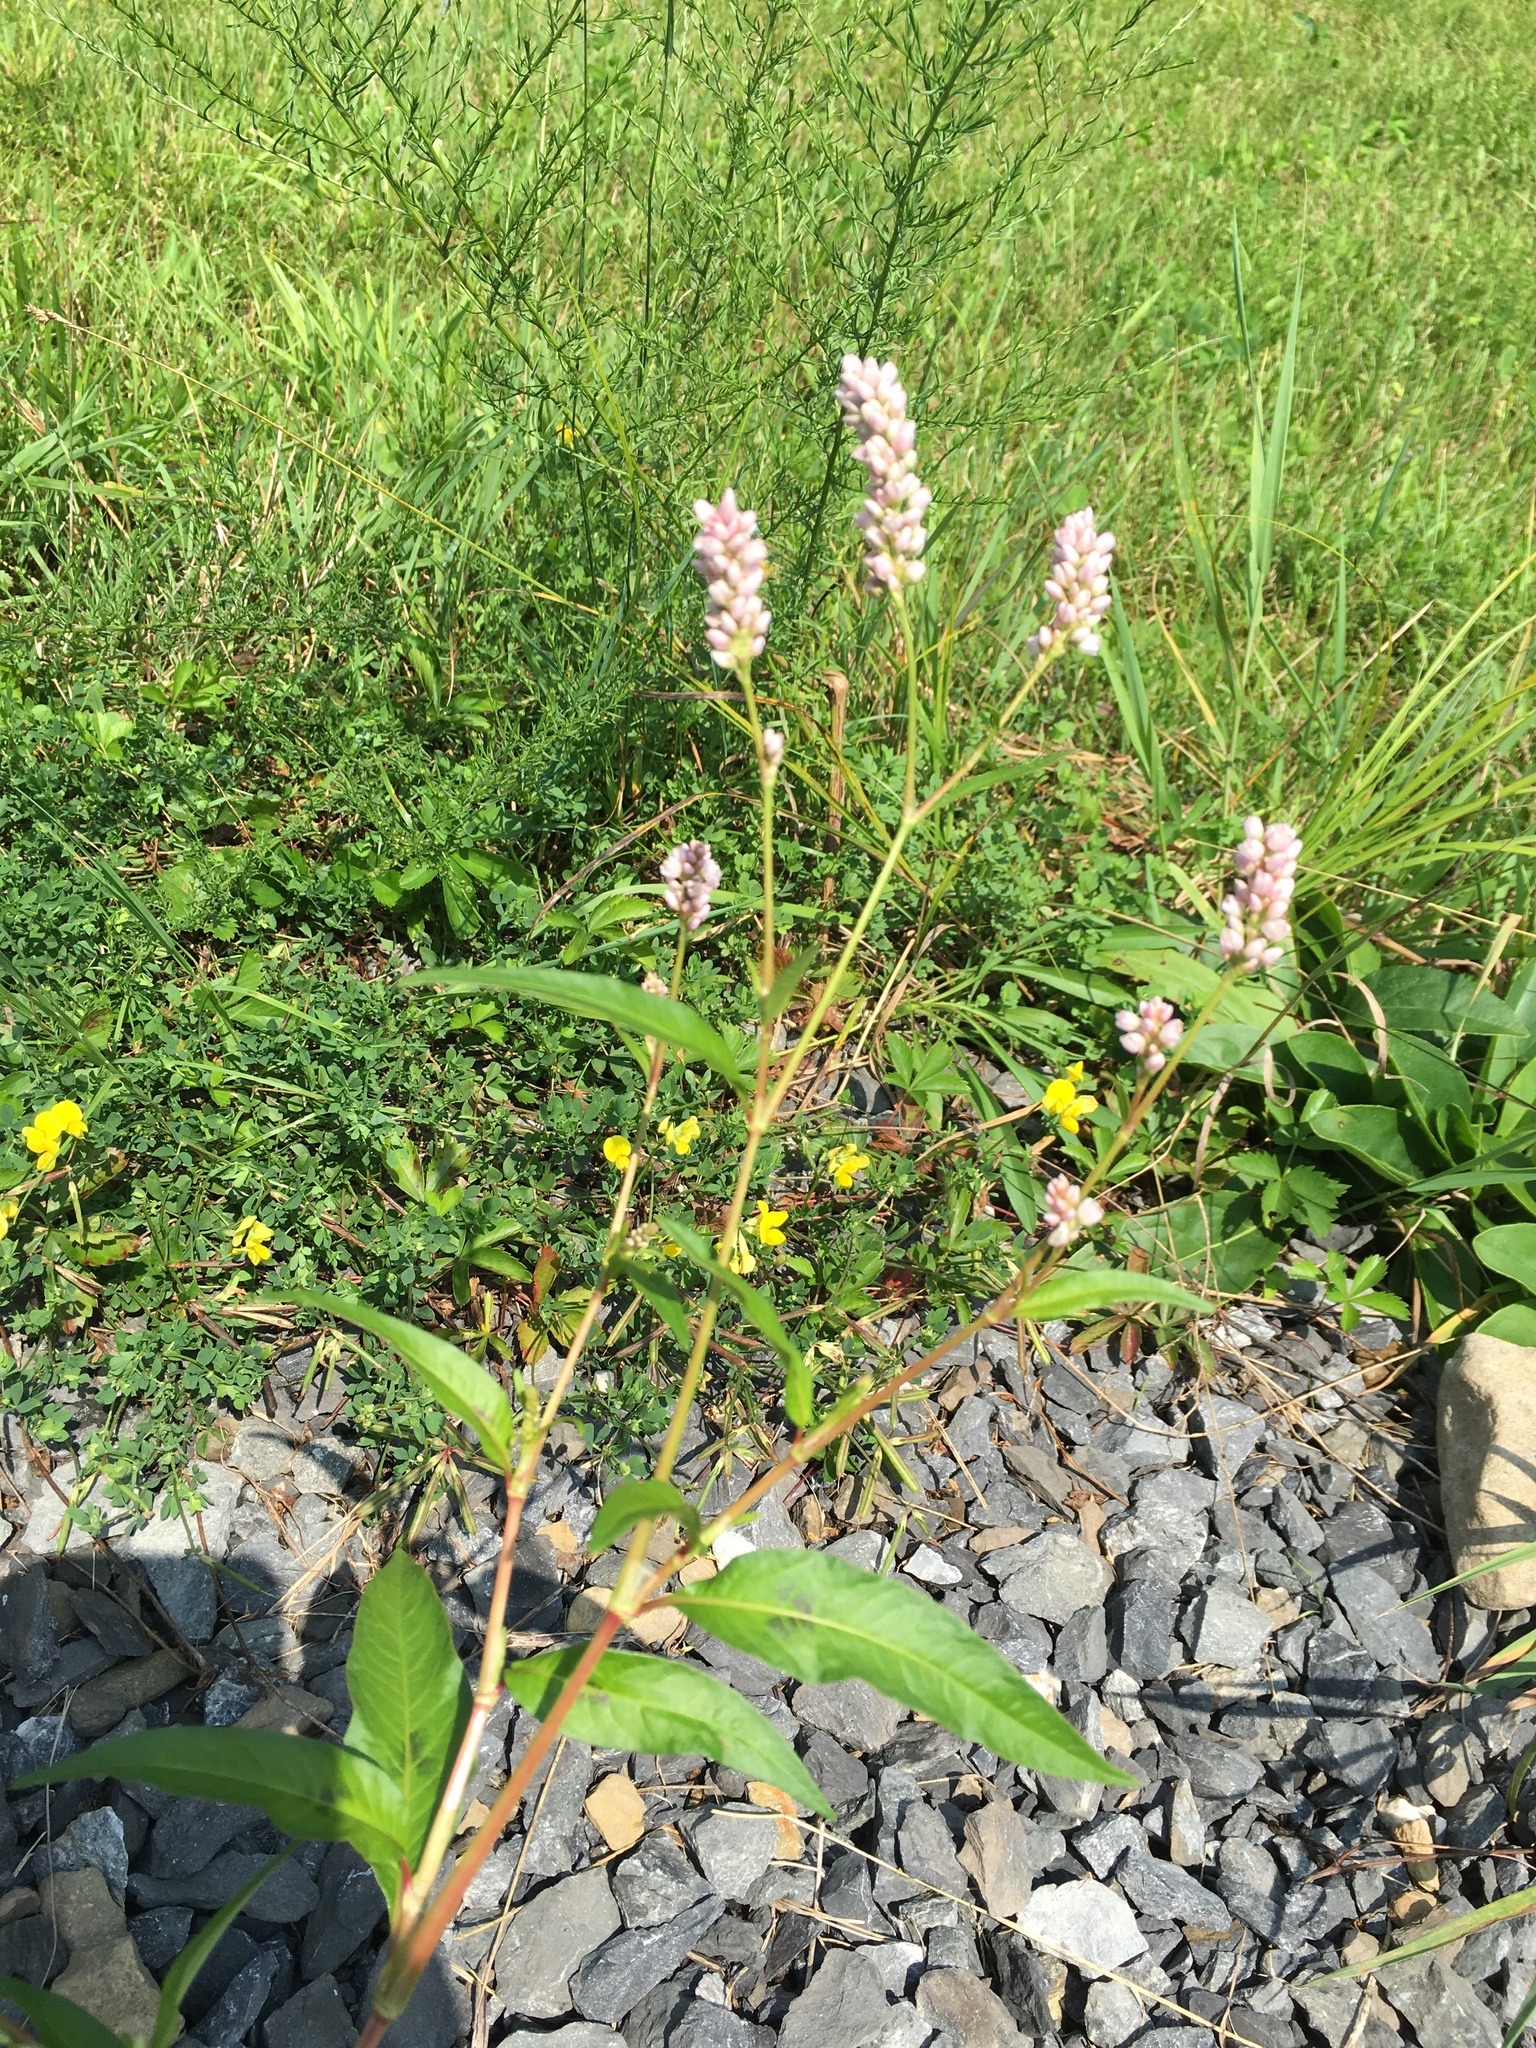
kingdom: Plantae
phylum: Tracheophyta
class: Magnoliopsida
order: Caryophyllales
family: Polygonaceae
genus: Persicaria
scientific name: Persicaria pensylvanica
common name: Pinkweed
